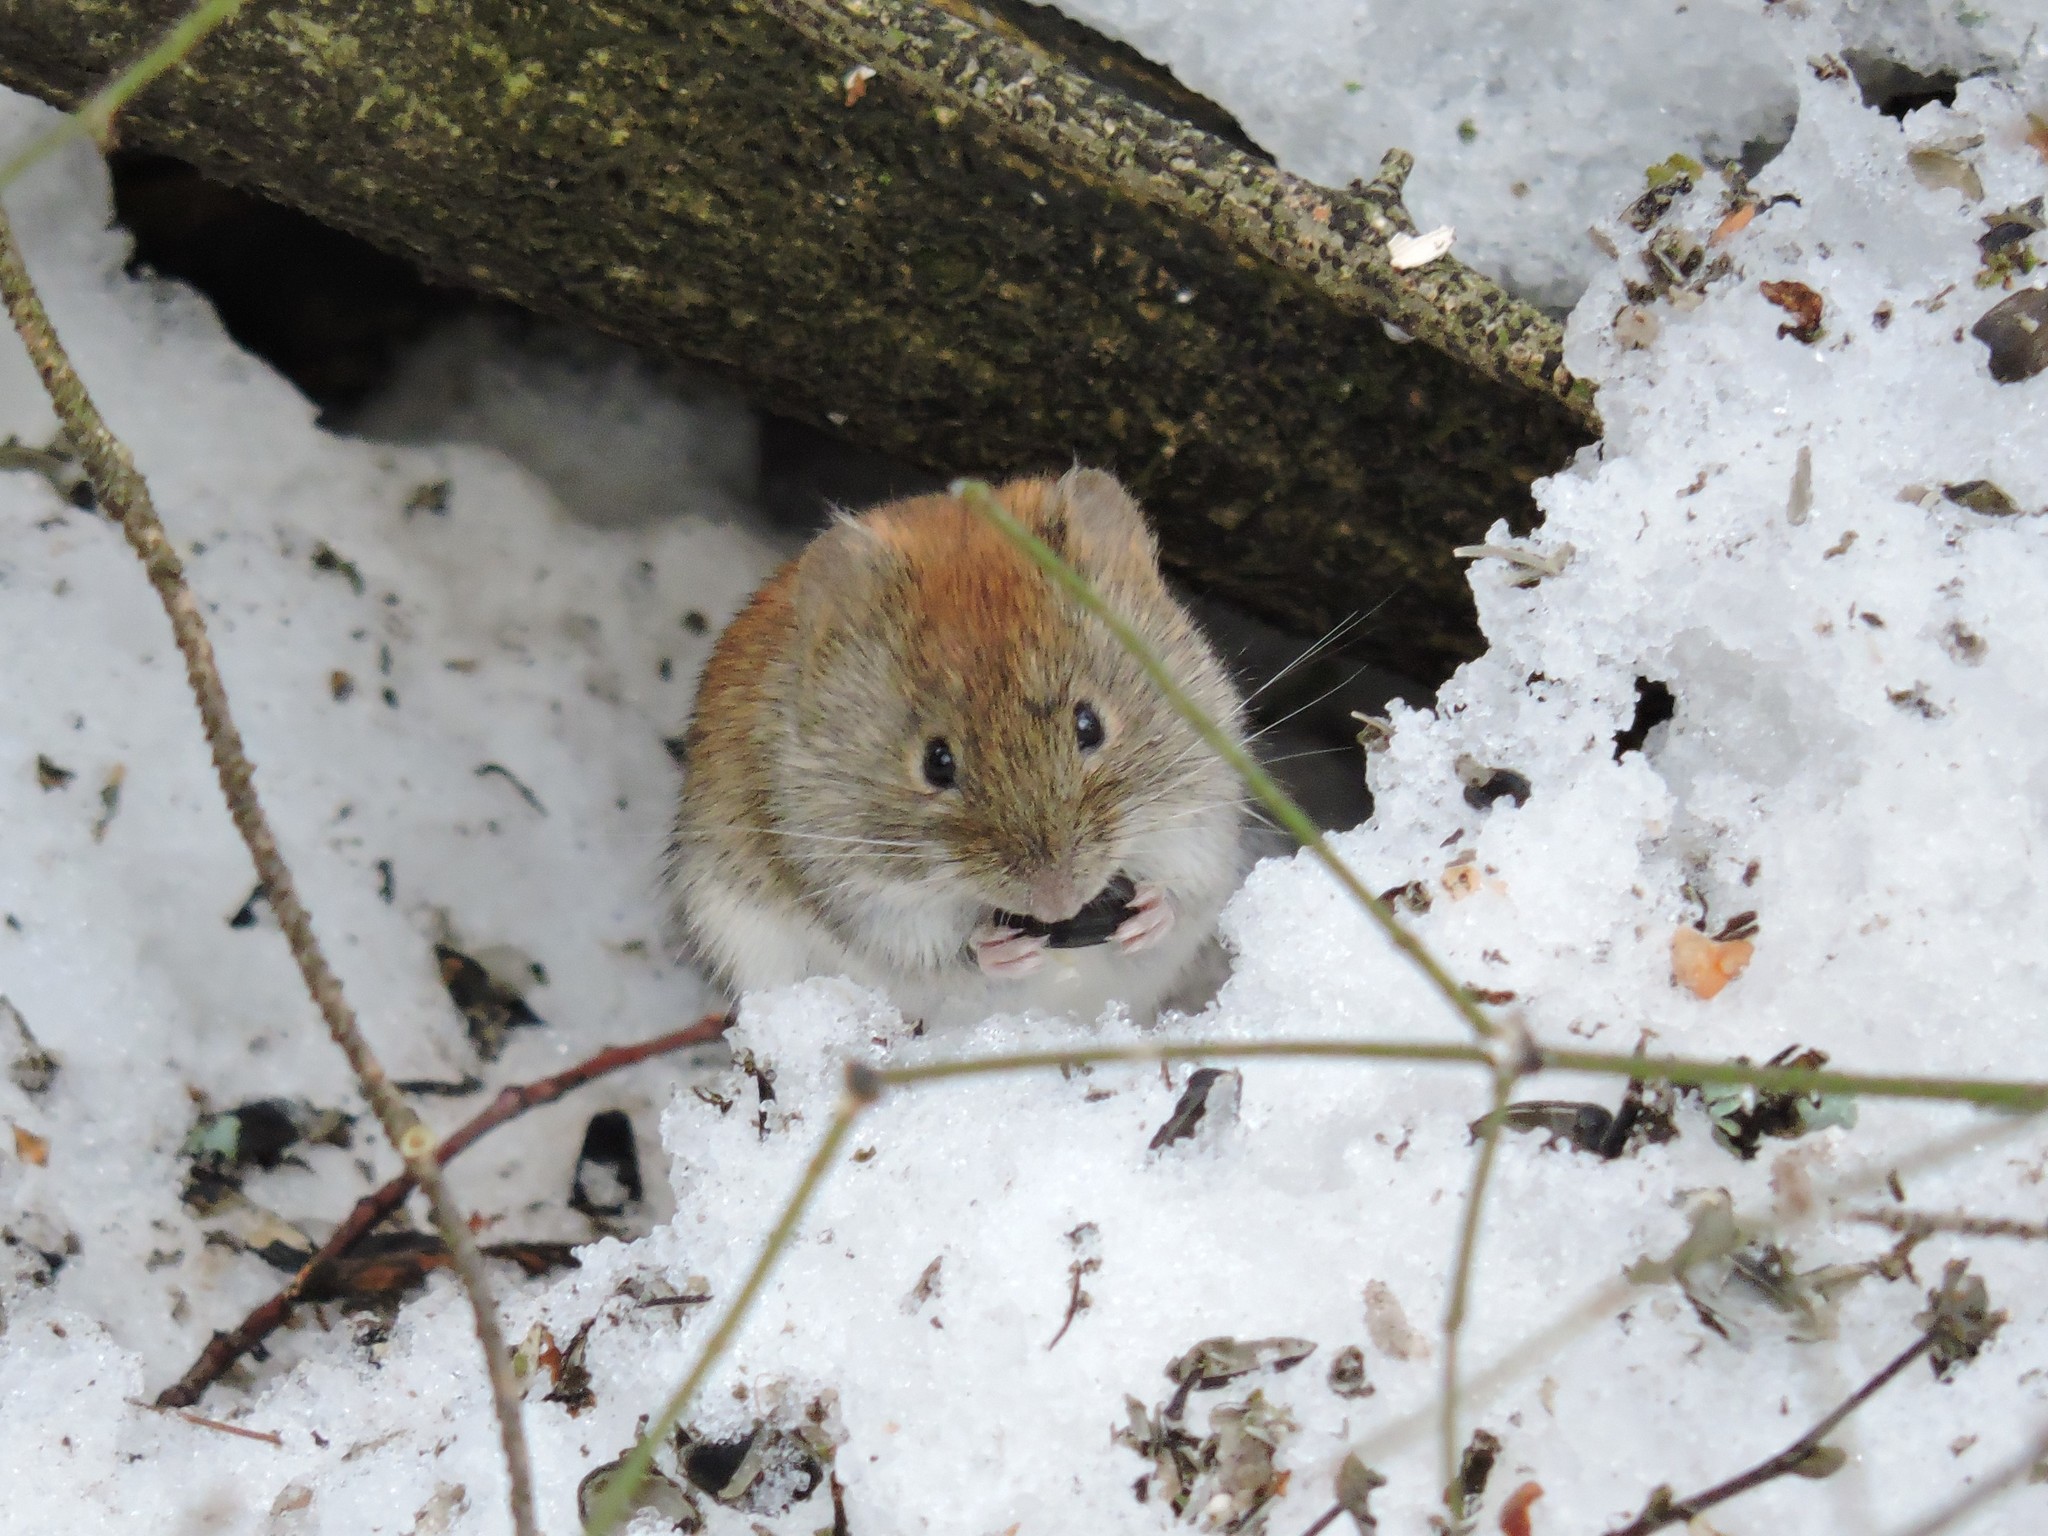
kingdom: Animalia
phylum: Chordata
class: Mammalia
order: Rodentia
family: Cricetidae
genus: Myodes
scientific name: Myodes glareolus
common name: Bank vole
